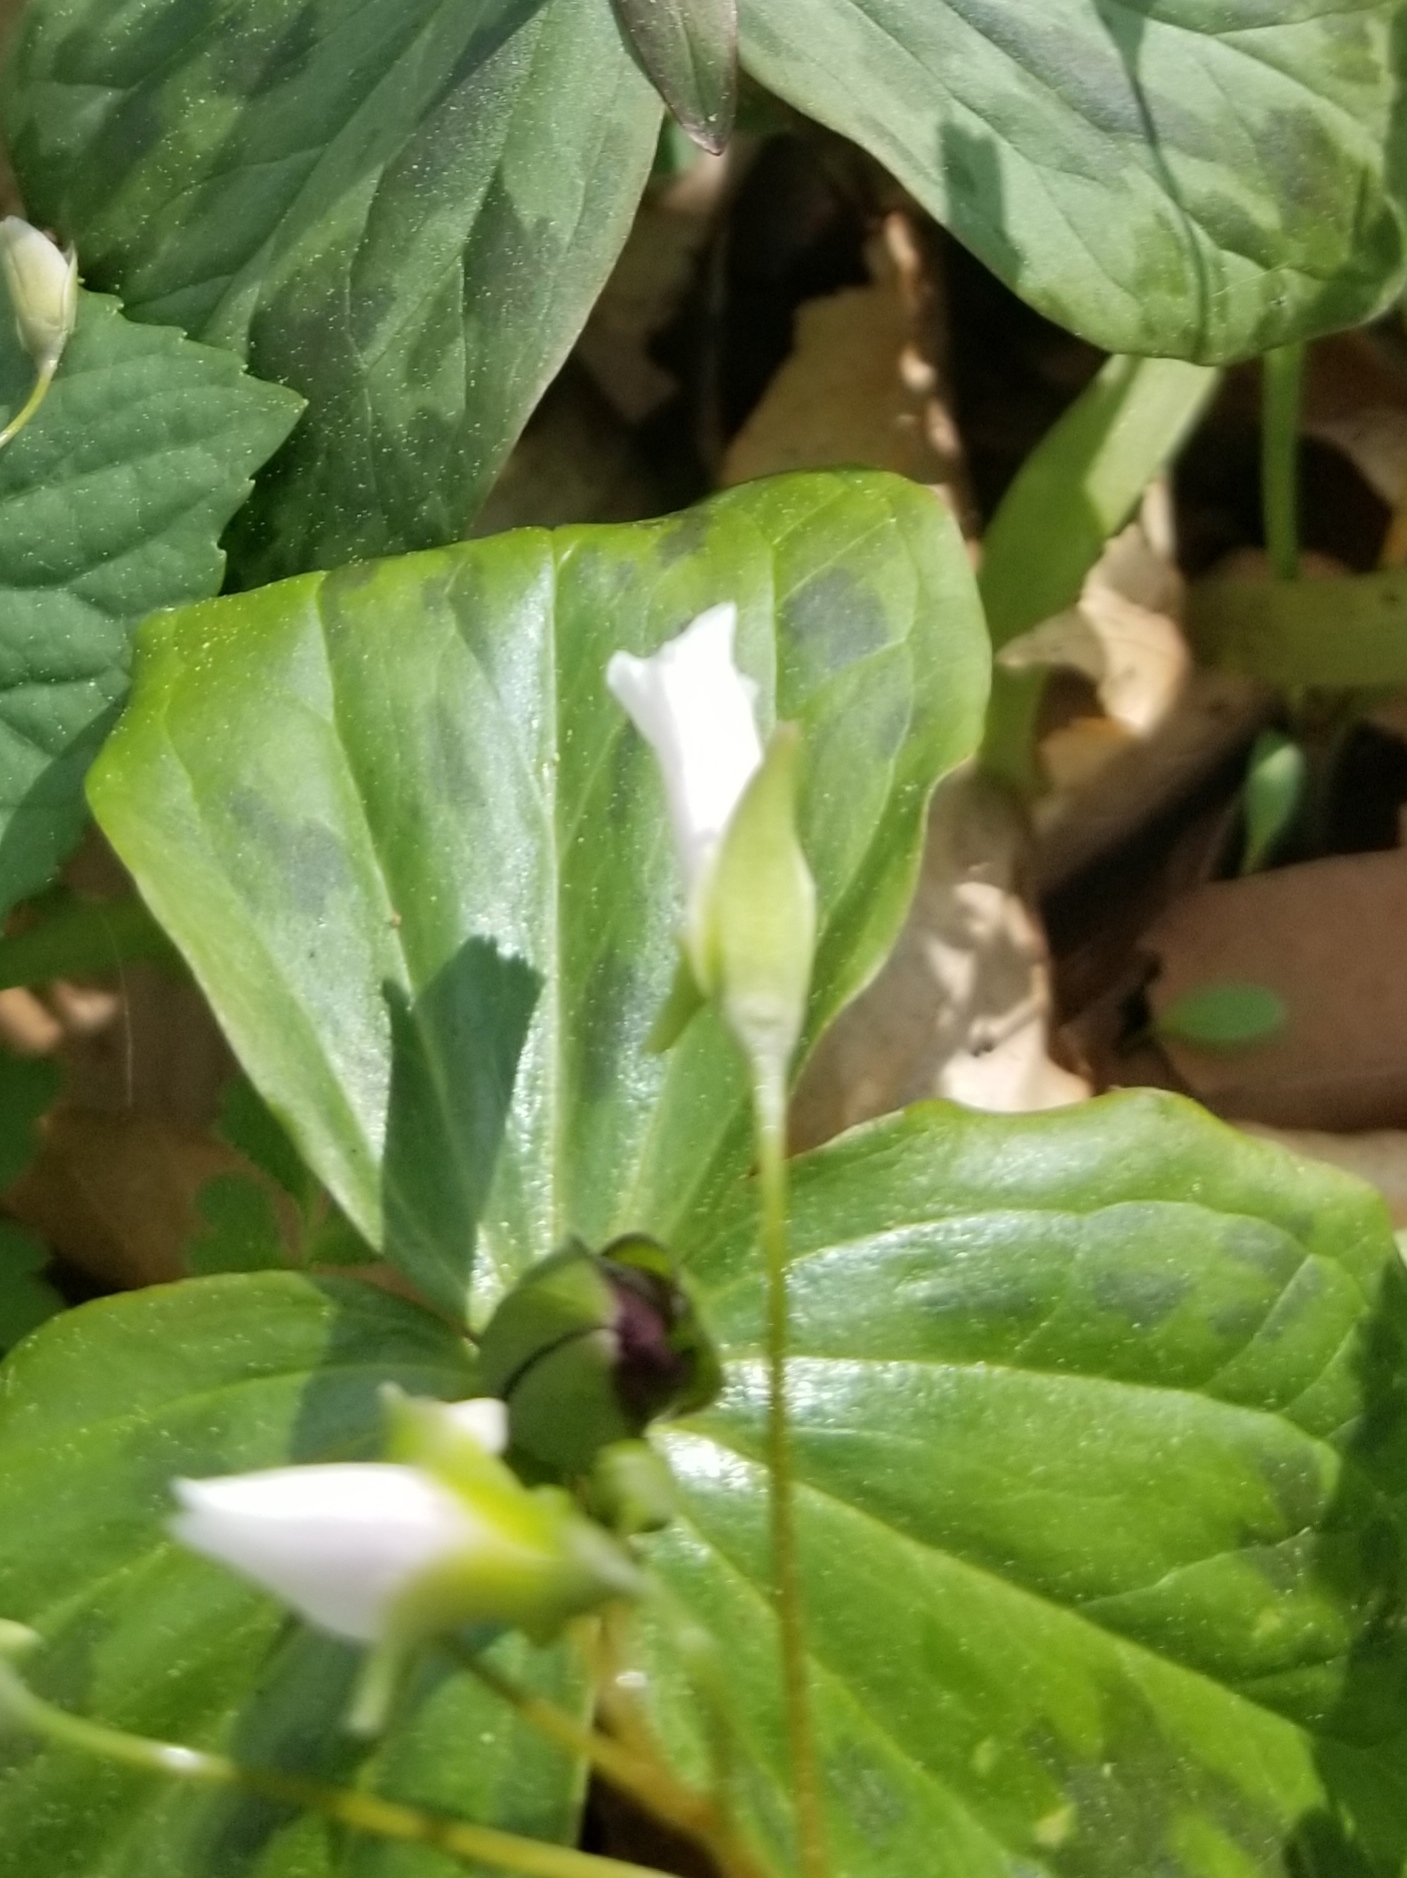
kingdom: Plantae
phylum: Tracheophyta
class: Liliopsida
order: Liliales
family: Melanthiaceae
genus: Trillium
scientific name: Trillium sessile
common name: Sessile trillium
